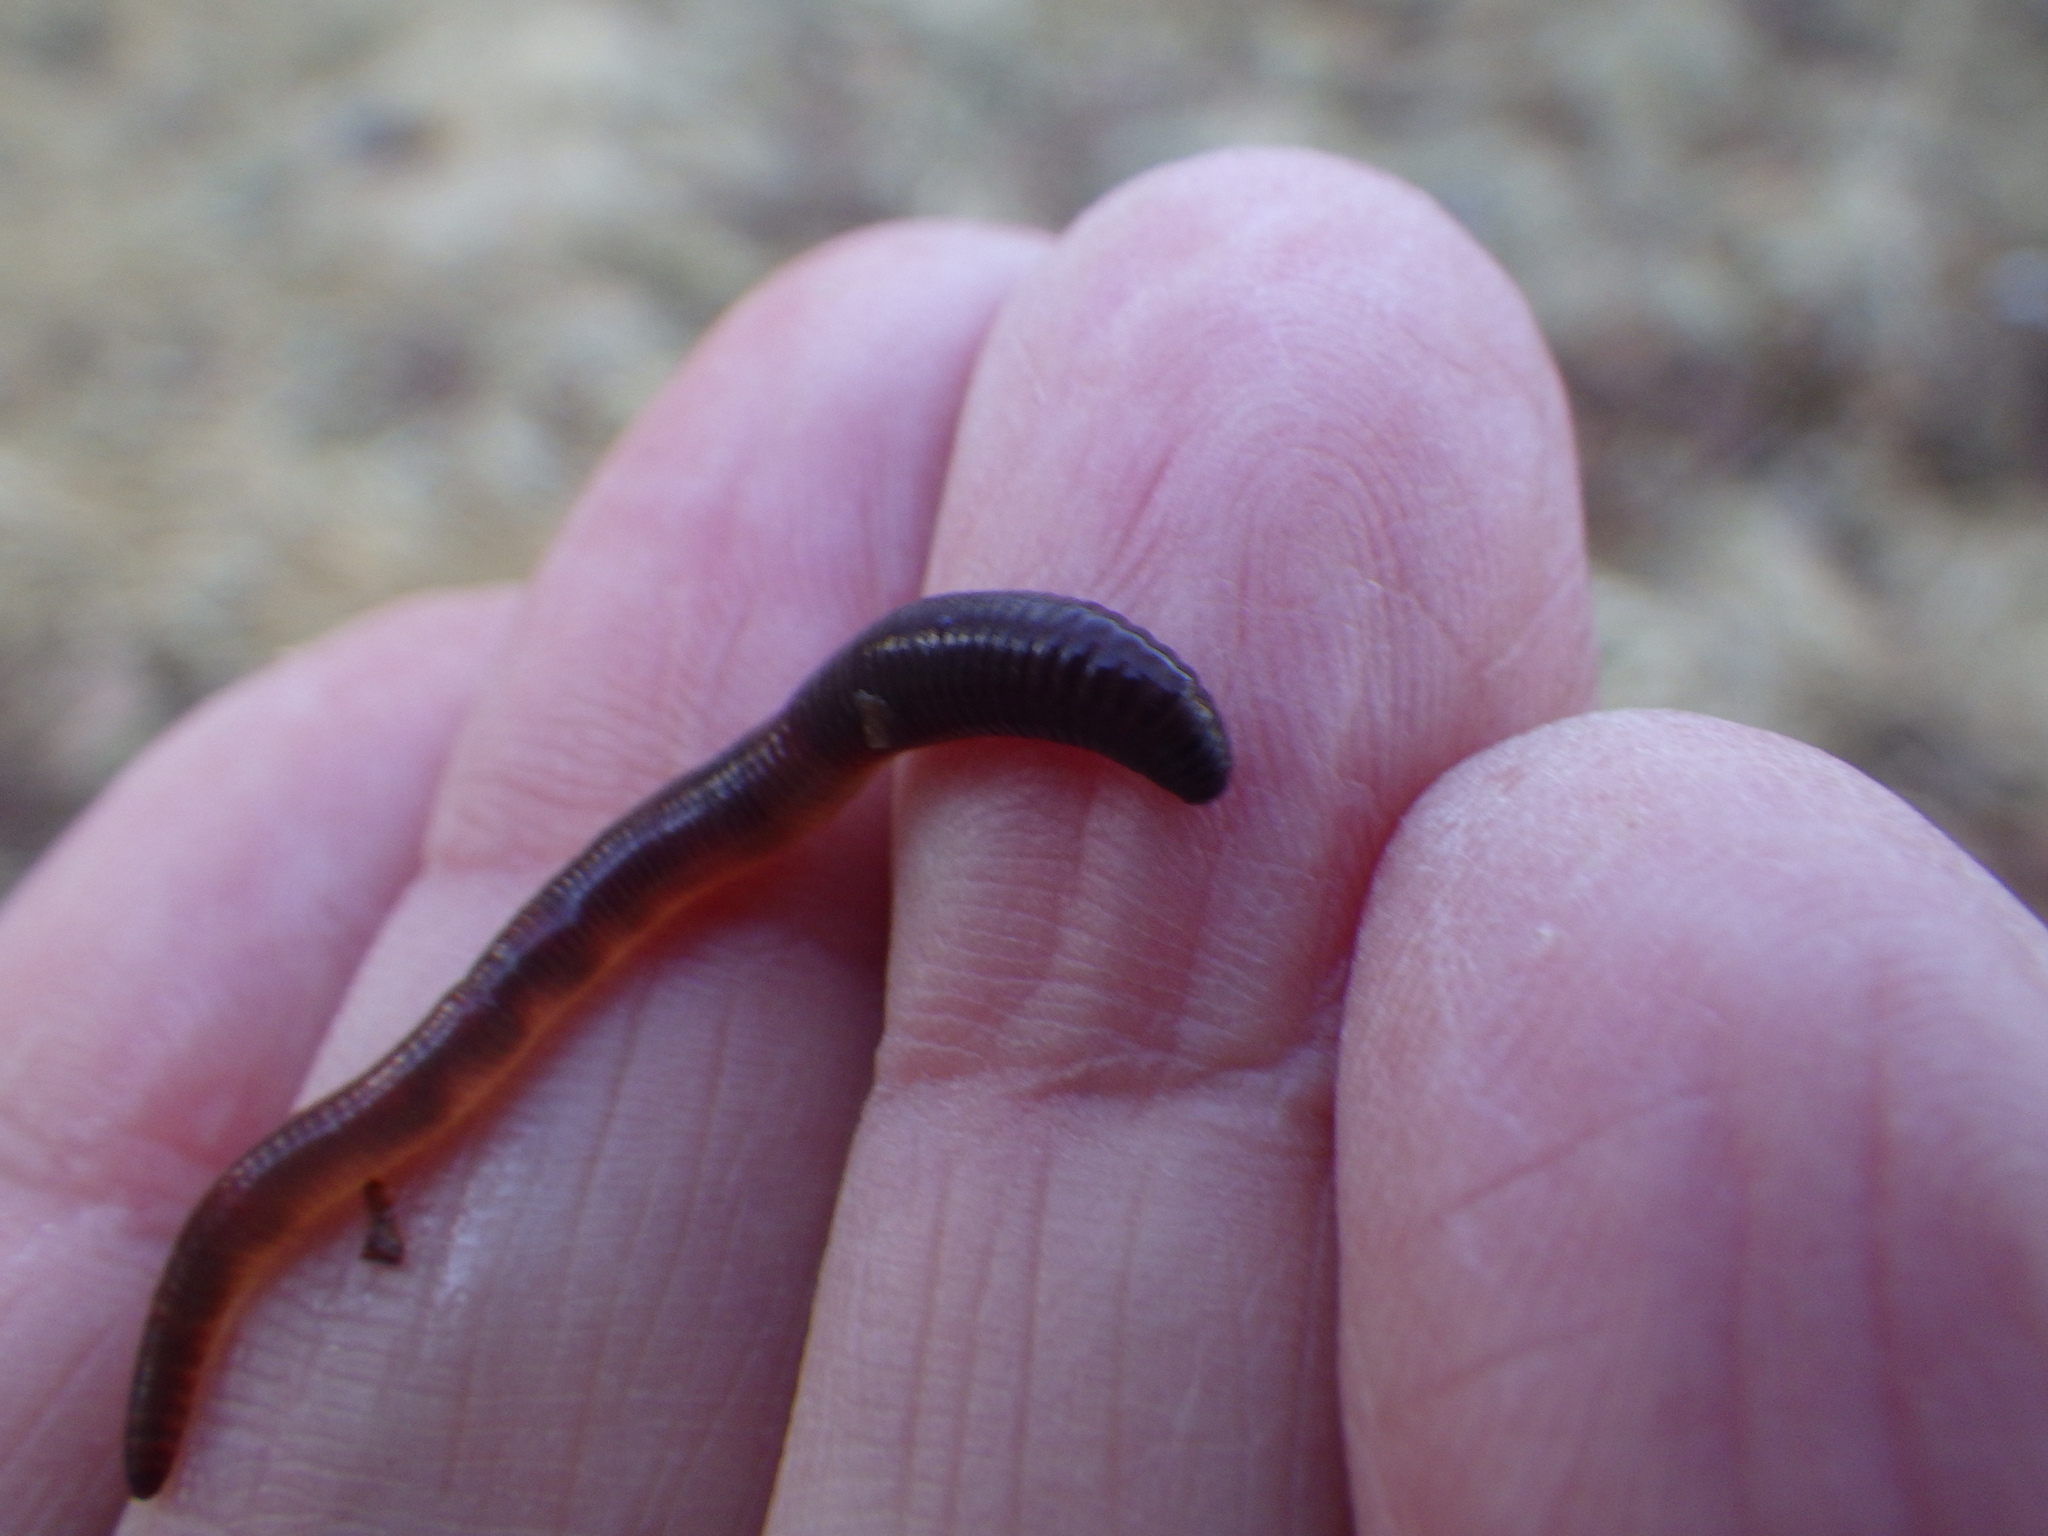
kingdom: Animalia
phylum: Annelida
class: Clitellata
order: Crassiclitellata
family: Lumbricidae
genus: Lumbricus
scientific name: Lumbricus terrestris
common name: Common earthworm
